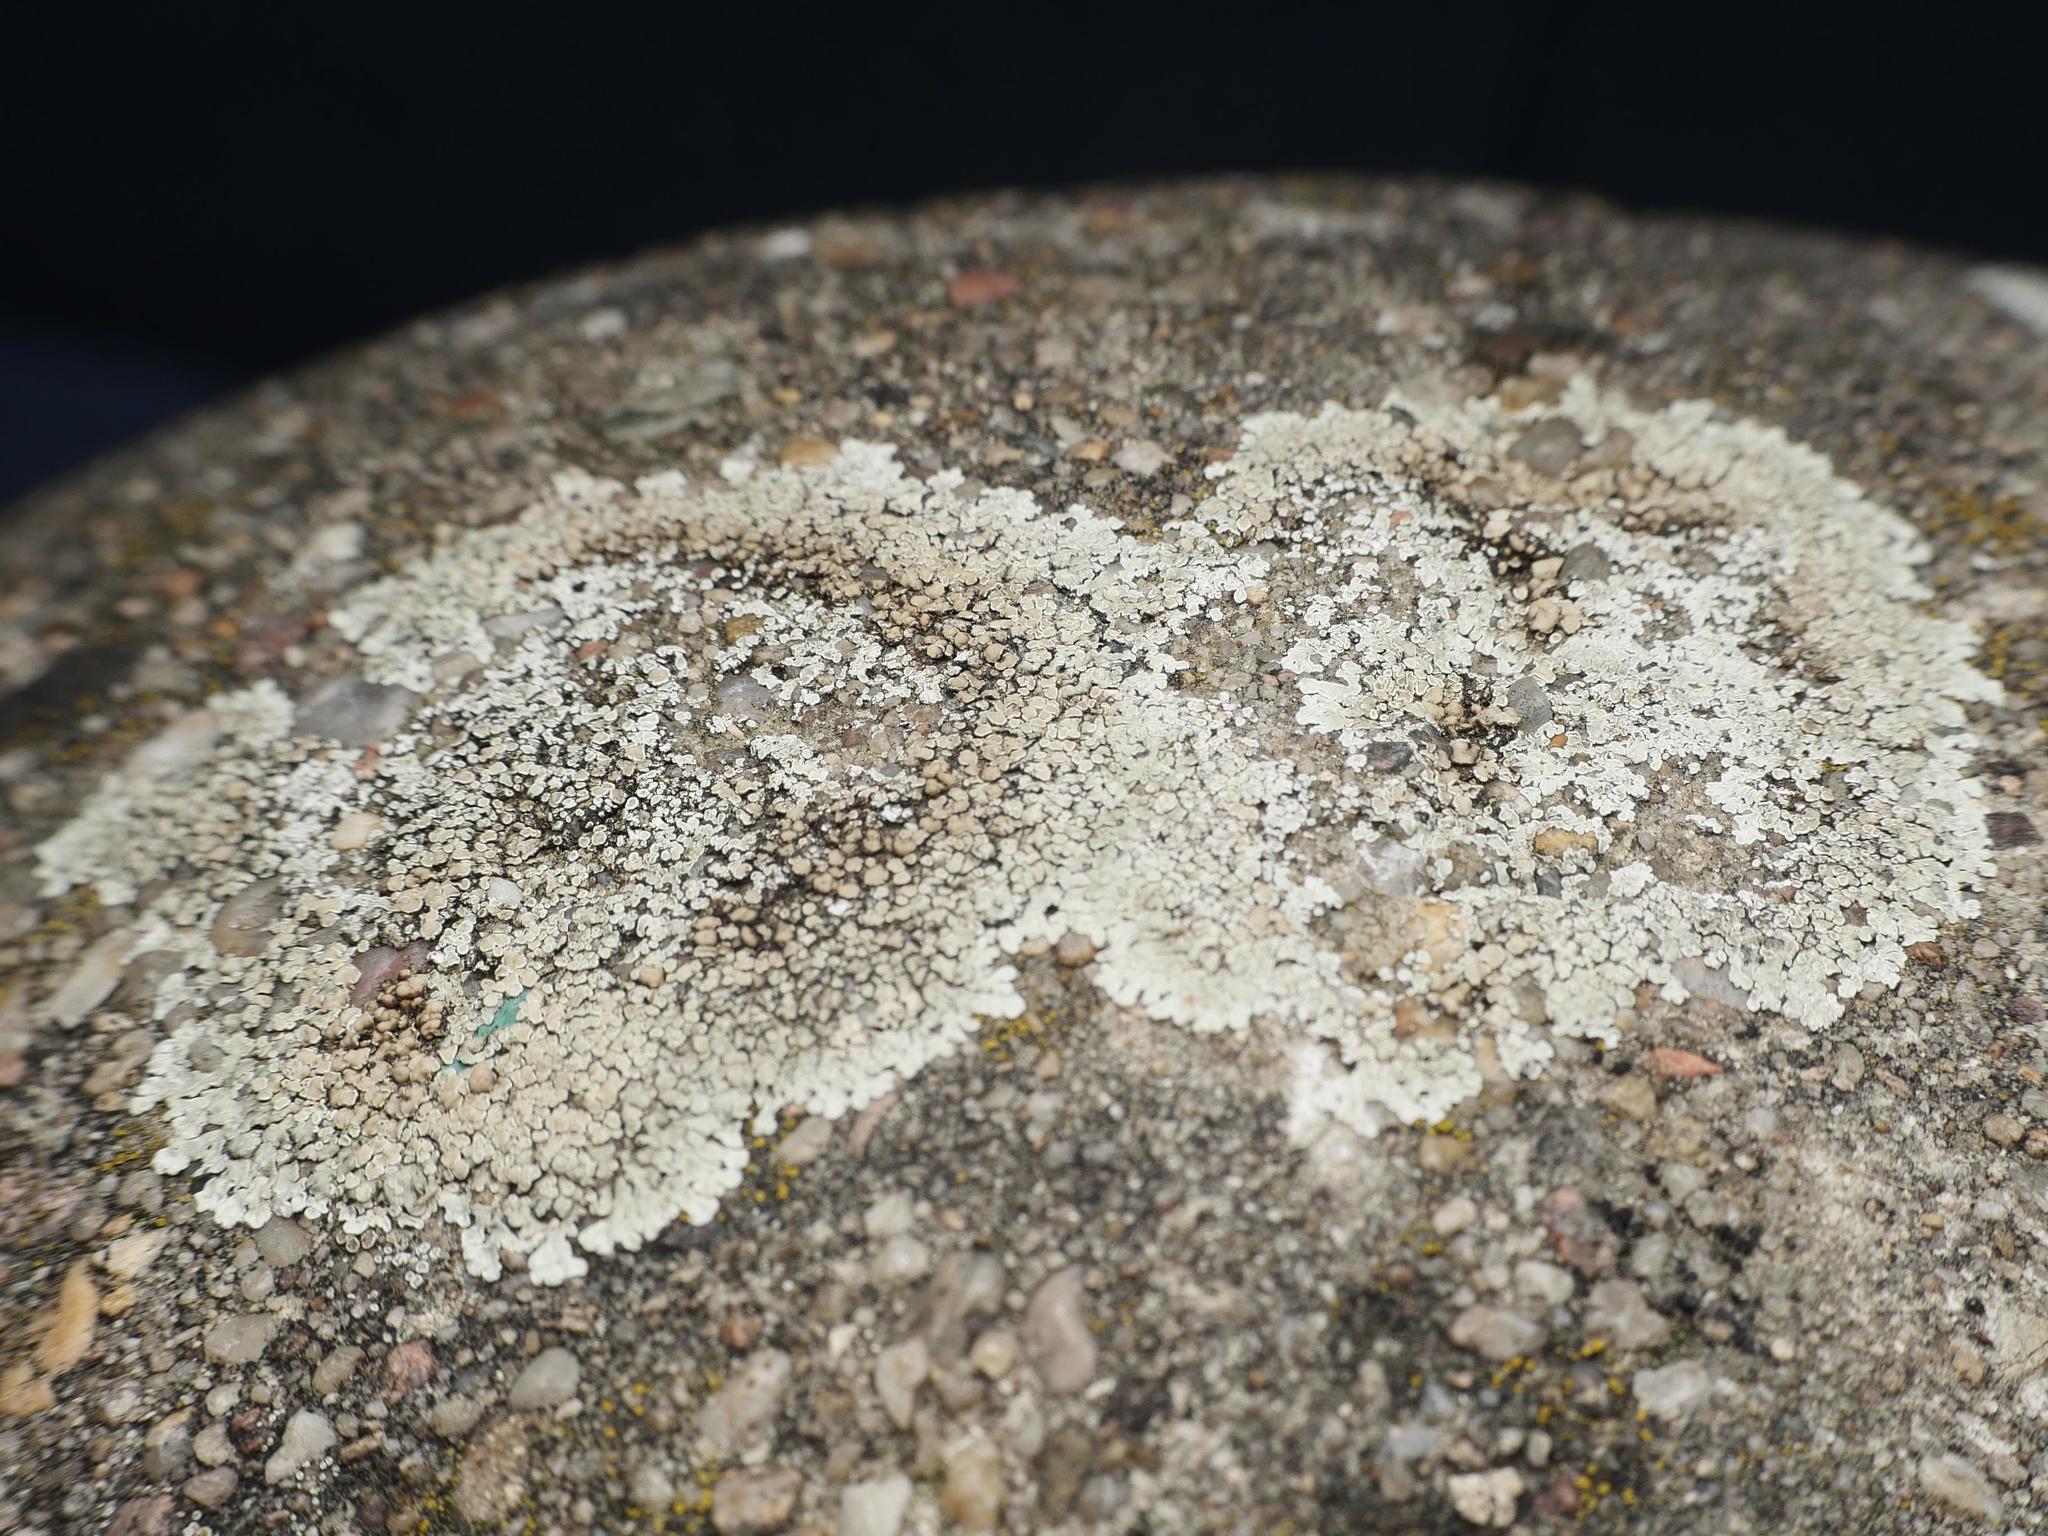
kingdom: Fungi
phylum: Ascomycota
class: Lecanoromycetes
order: Lecanorales
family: Lecanoraceae
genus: Protoparmeliopsis
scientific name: Protoparmeliopsis muralis
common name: Stonewall rim lichen
